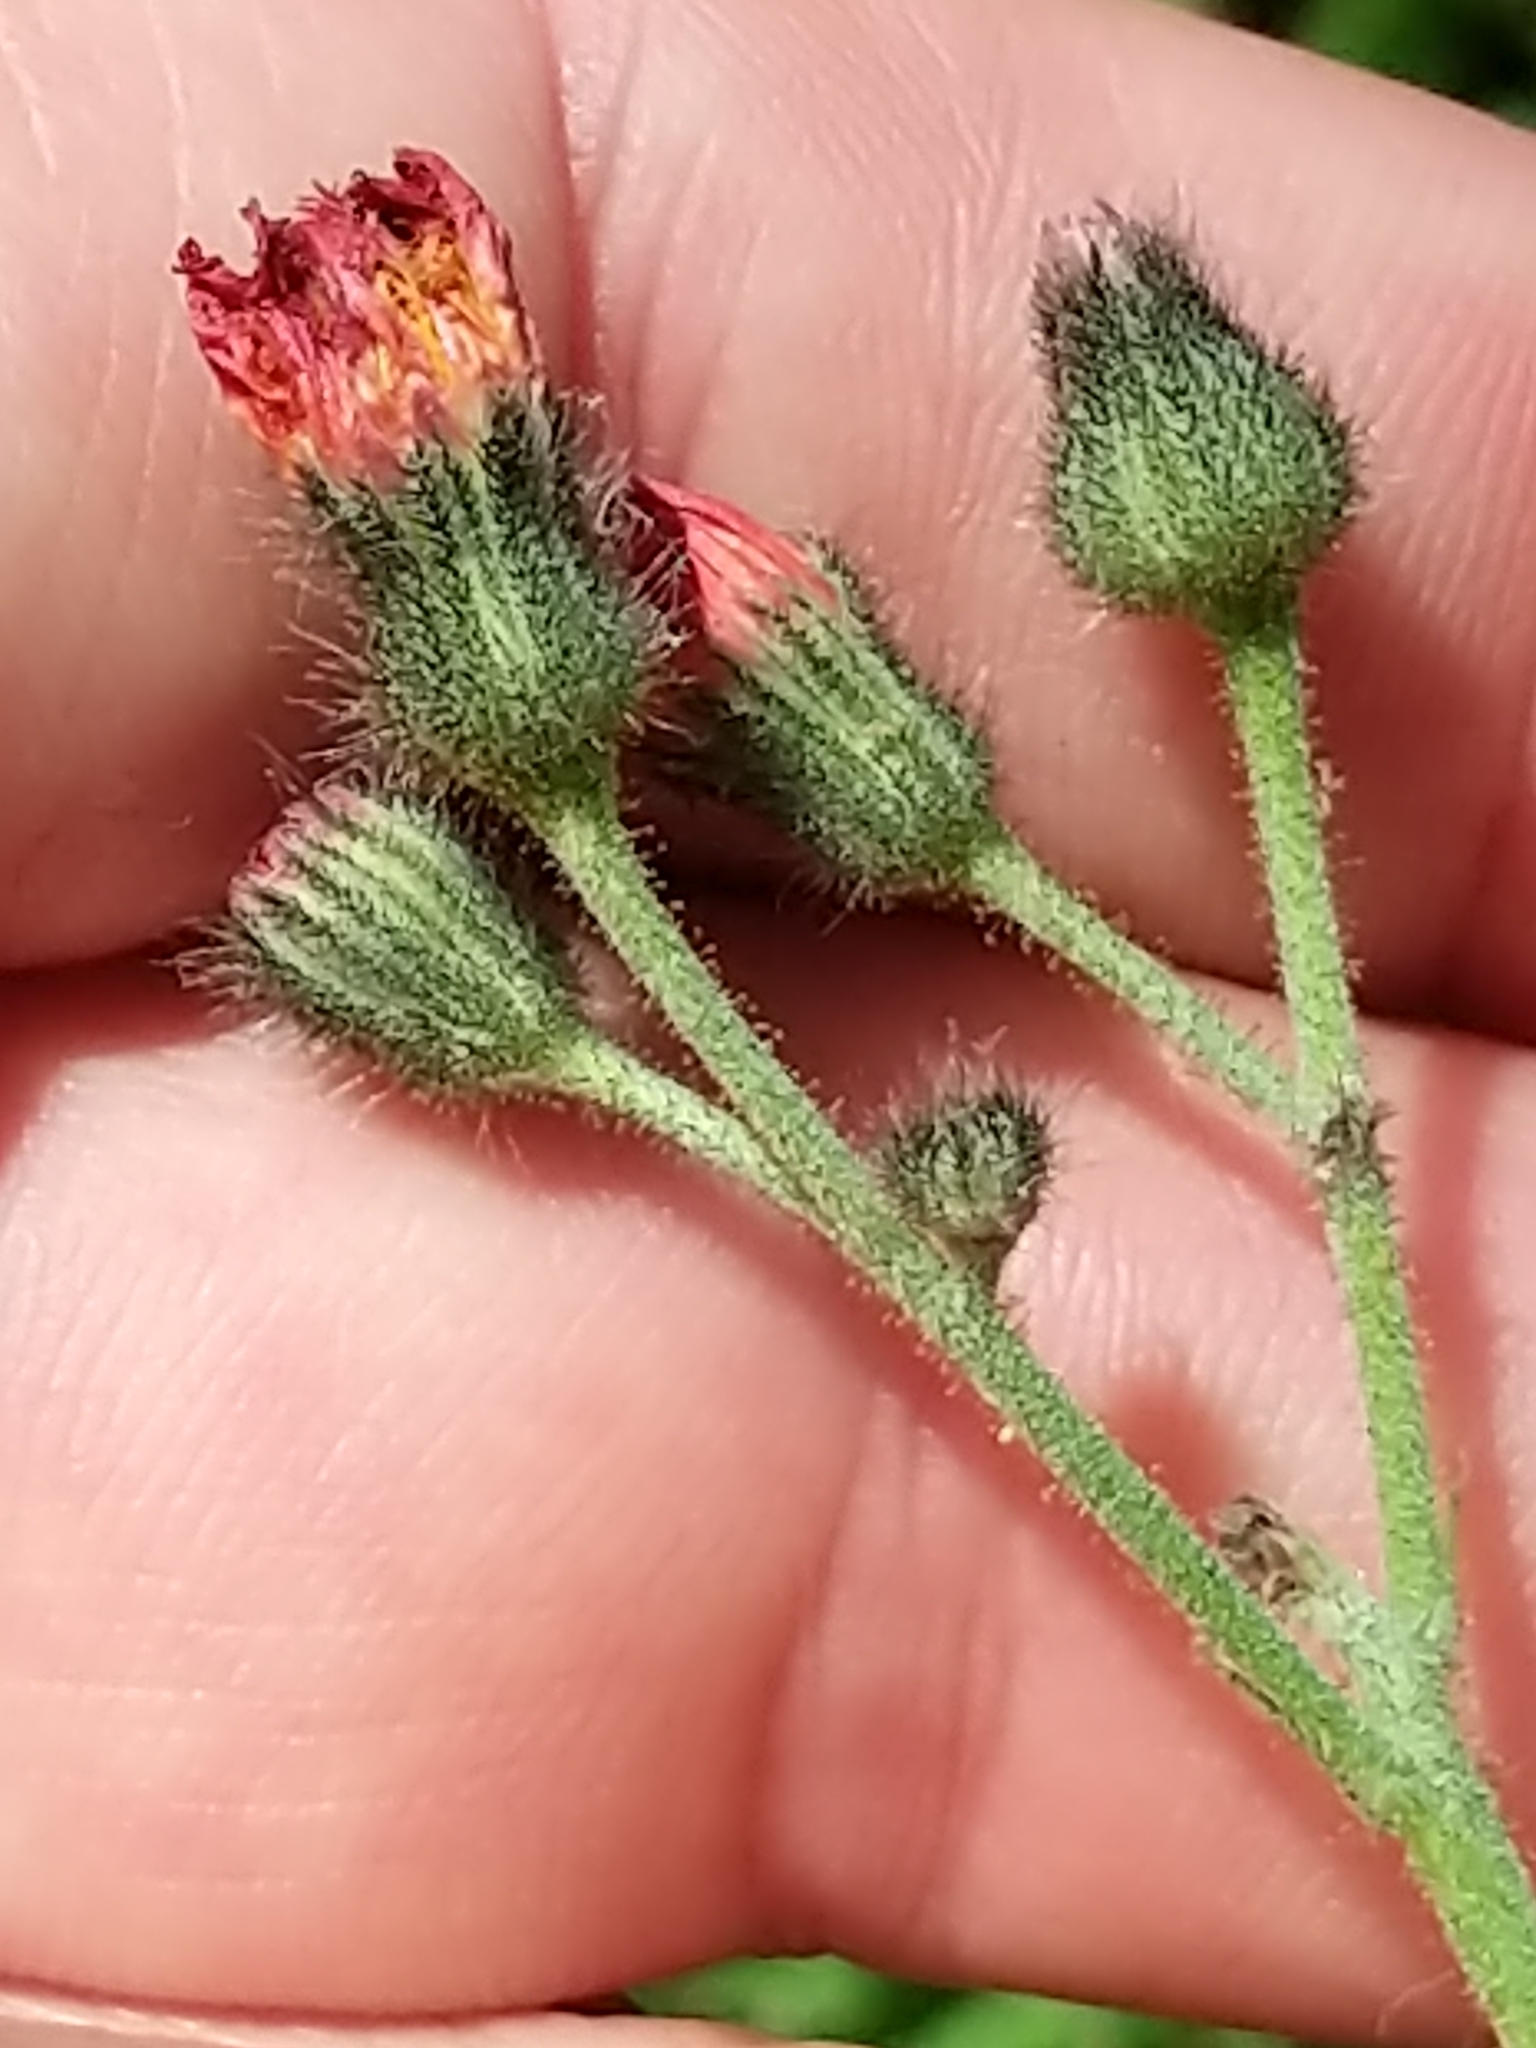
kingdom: Plantae
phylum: Tracheophyta
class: Magnoliopsida
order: Asterales
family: Asteraceae
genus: Pilosella
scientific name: Pilosella aurantiaca
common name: Fox-and-cubs
